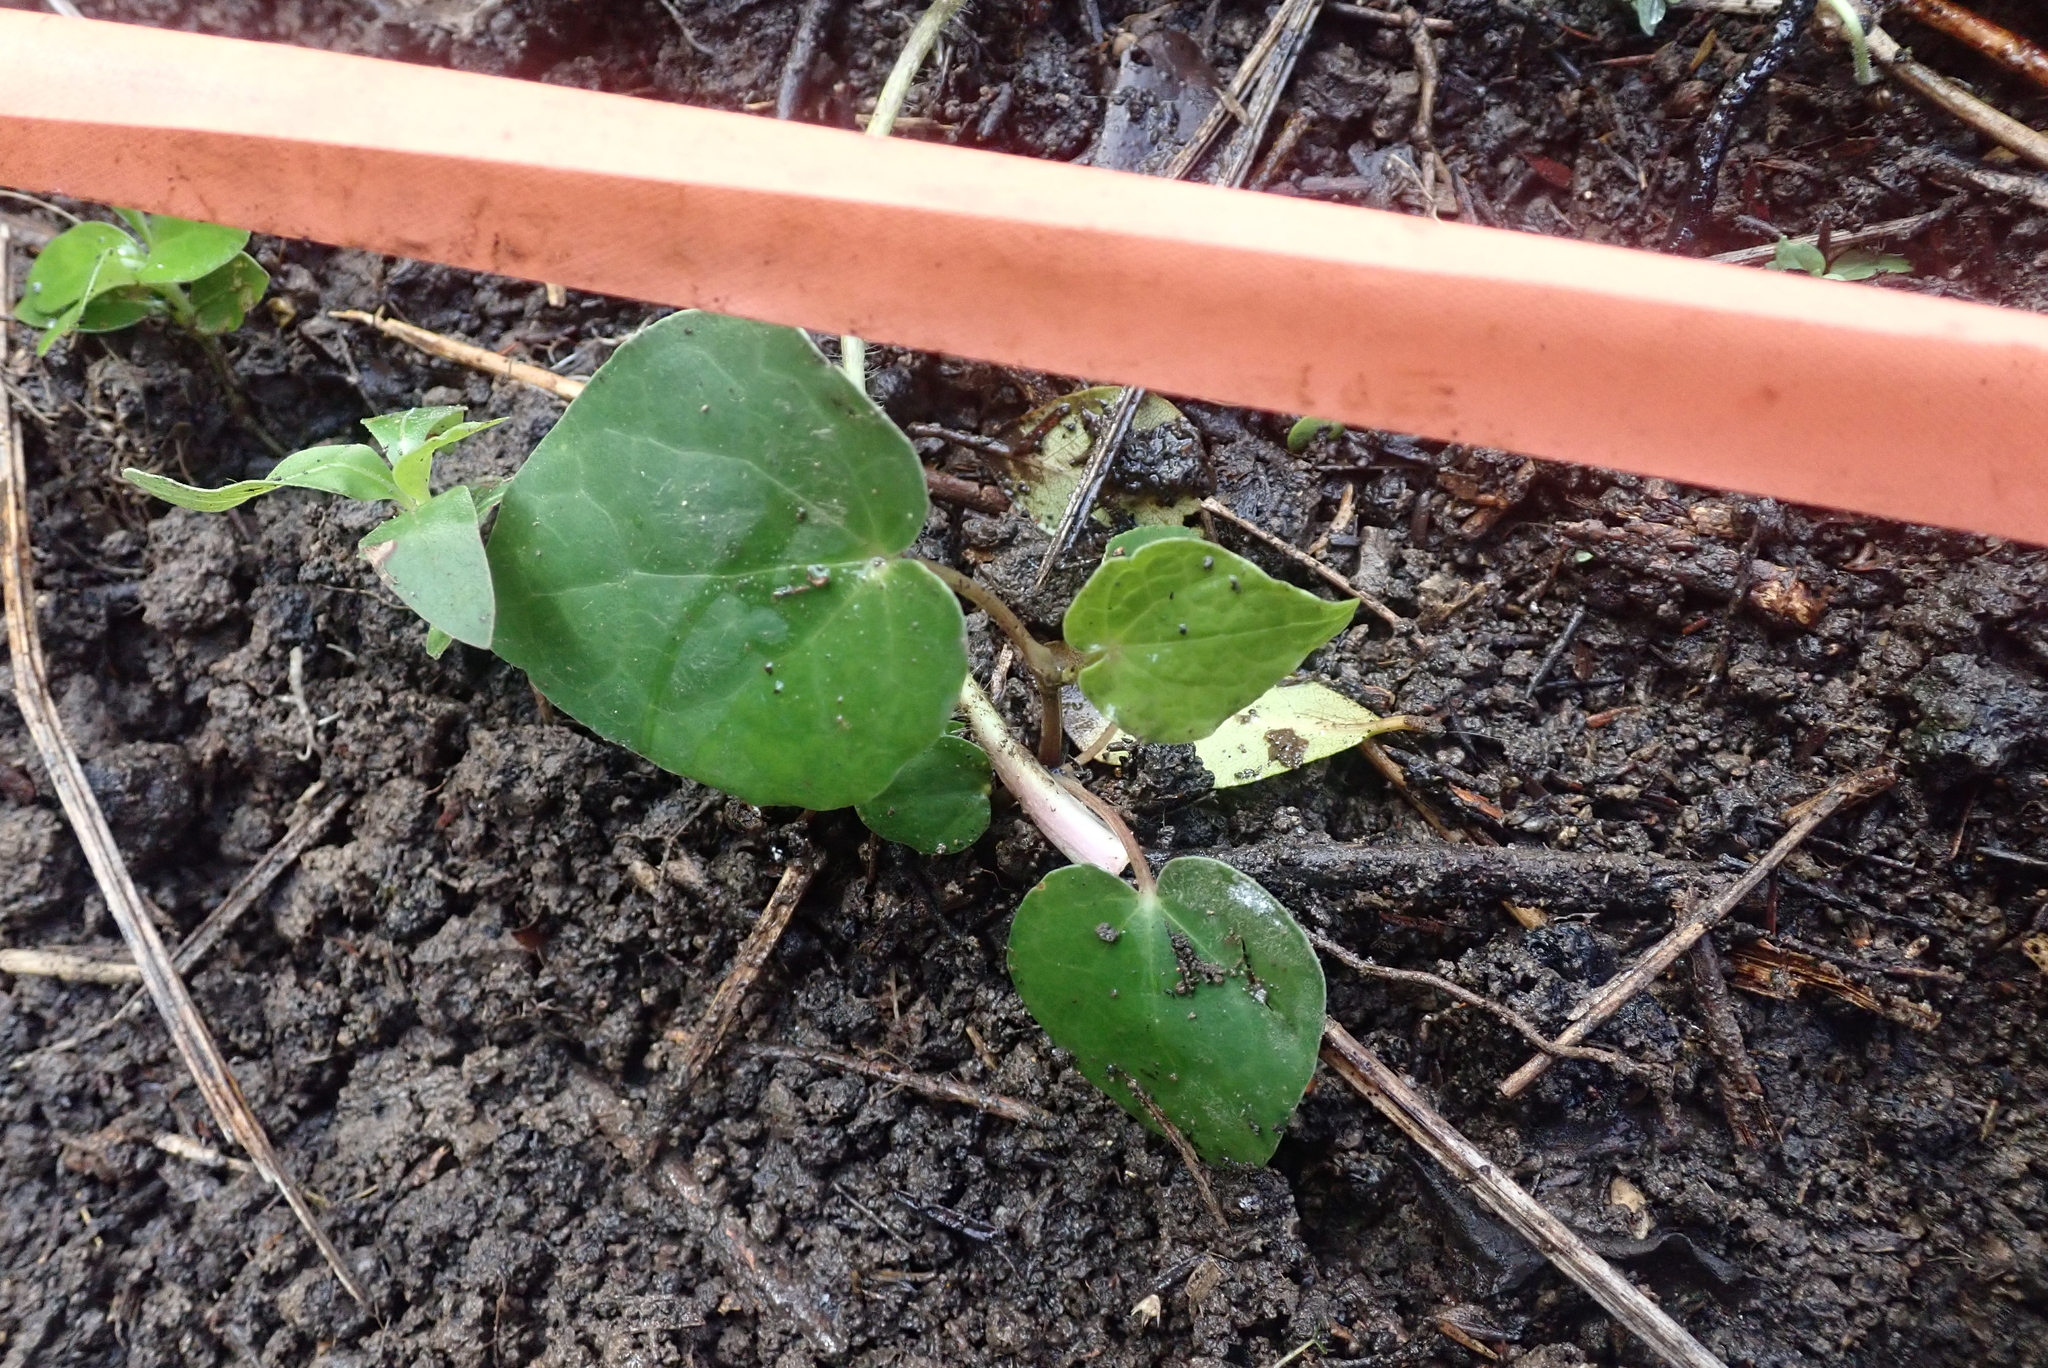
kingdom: Plantae
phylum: Tracheophyta
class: Magnoliopsida
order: Piperales
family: Piperaceae
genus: Macropiper
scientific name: Macropiper excelsum
